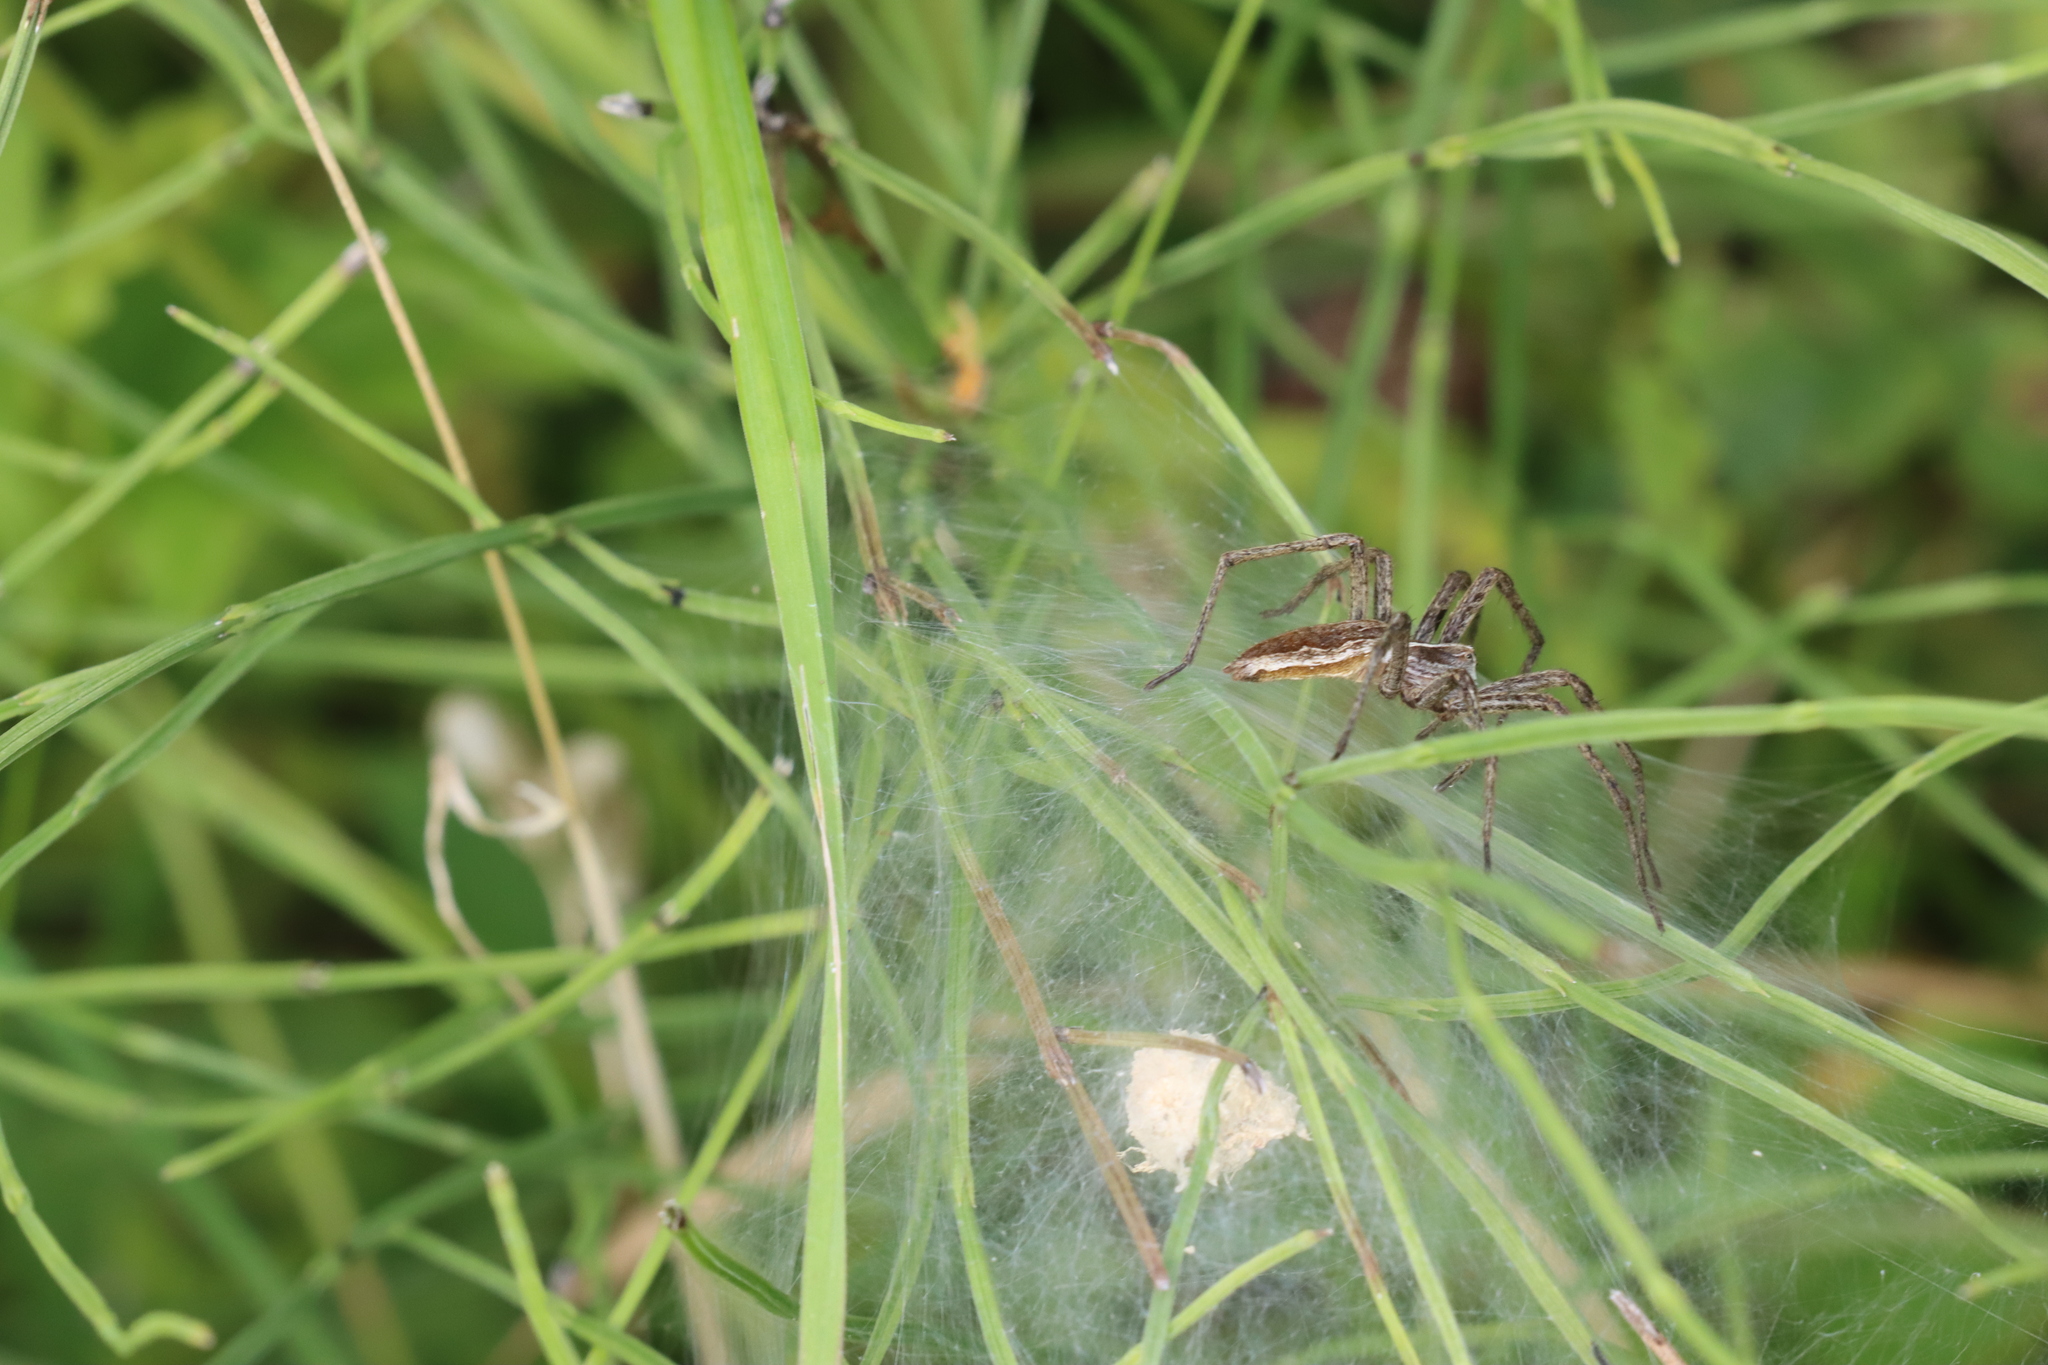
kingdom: Animalia
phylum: Arthropoda
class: Arachnida
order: Araneae
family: Pisauridae
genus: Pisaura
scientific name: Pisaura mirabilis
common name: Tent spider
